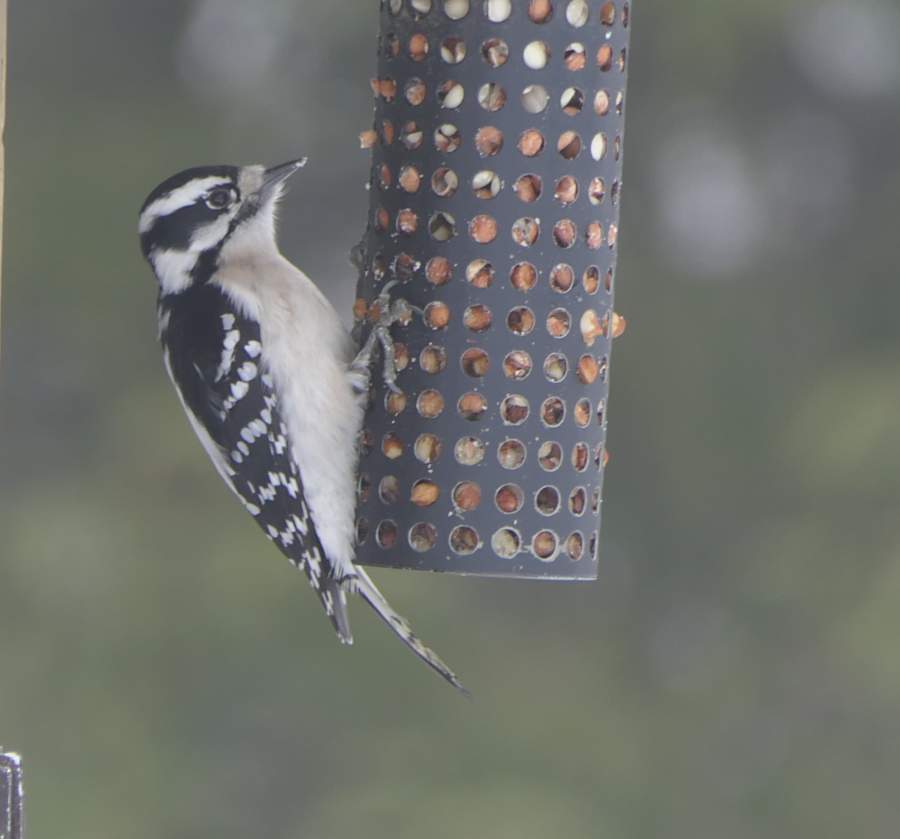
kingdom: Animalia
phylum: Chordata
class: Aves
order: Piciformes
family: Picidae
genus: Dryobates
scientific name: Dryobates pubescens
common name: Downy woodpecker
